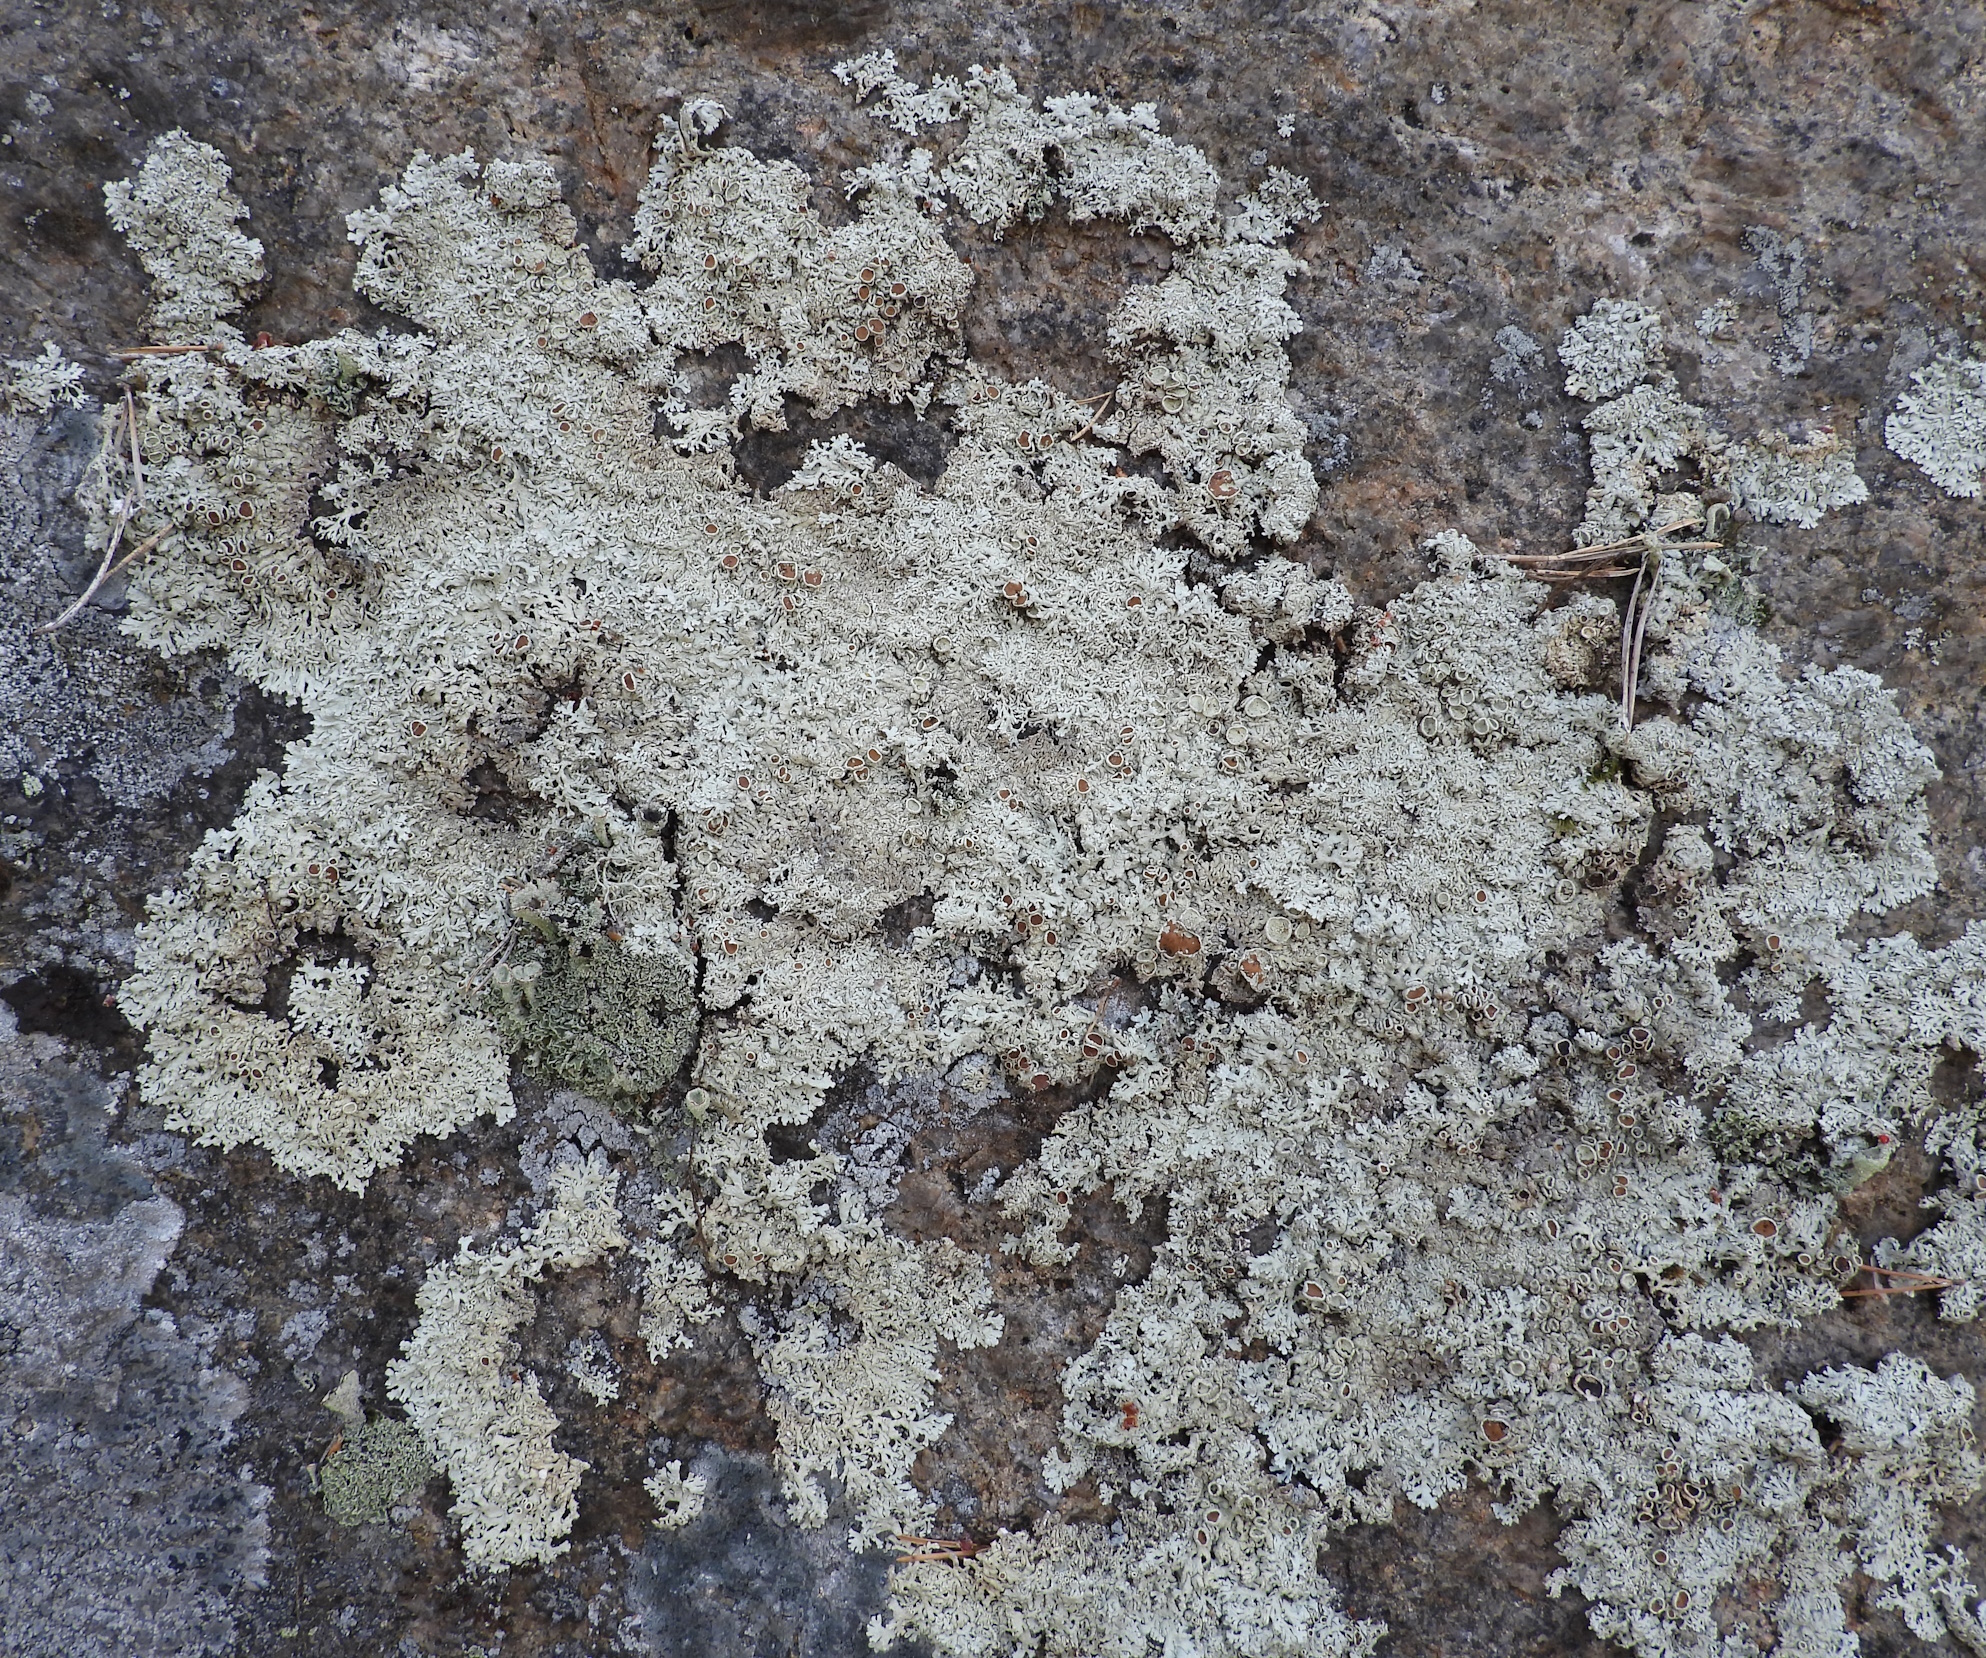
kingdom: Fungi
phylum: Ascomycota
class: Lecanoromycetes
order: Lecanorales
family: Parmeliaceae
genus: Arctoparmelia
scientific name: Arctoparmelia centrifuga
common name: Concentric ring lichen
